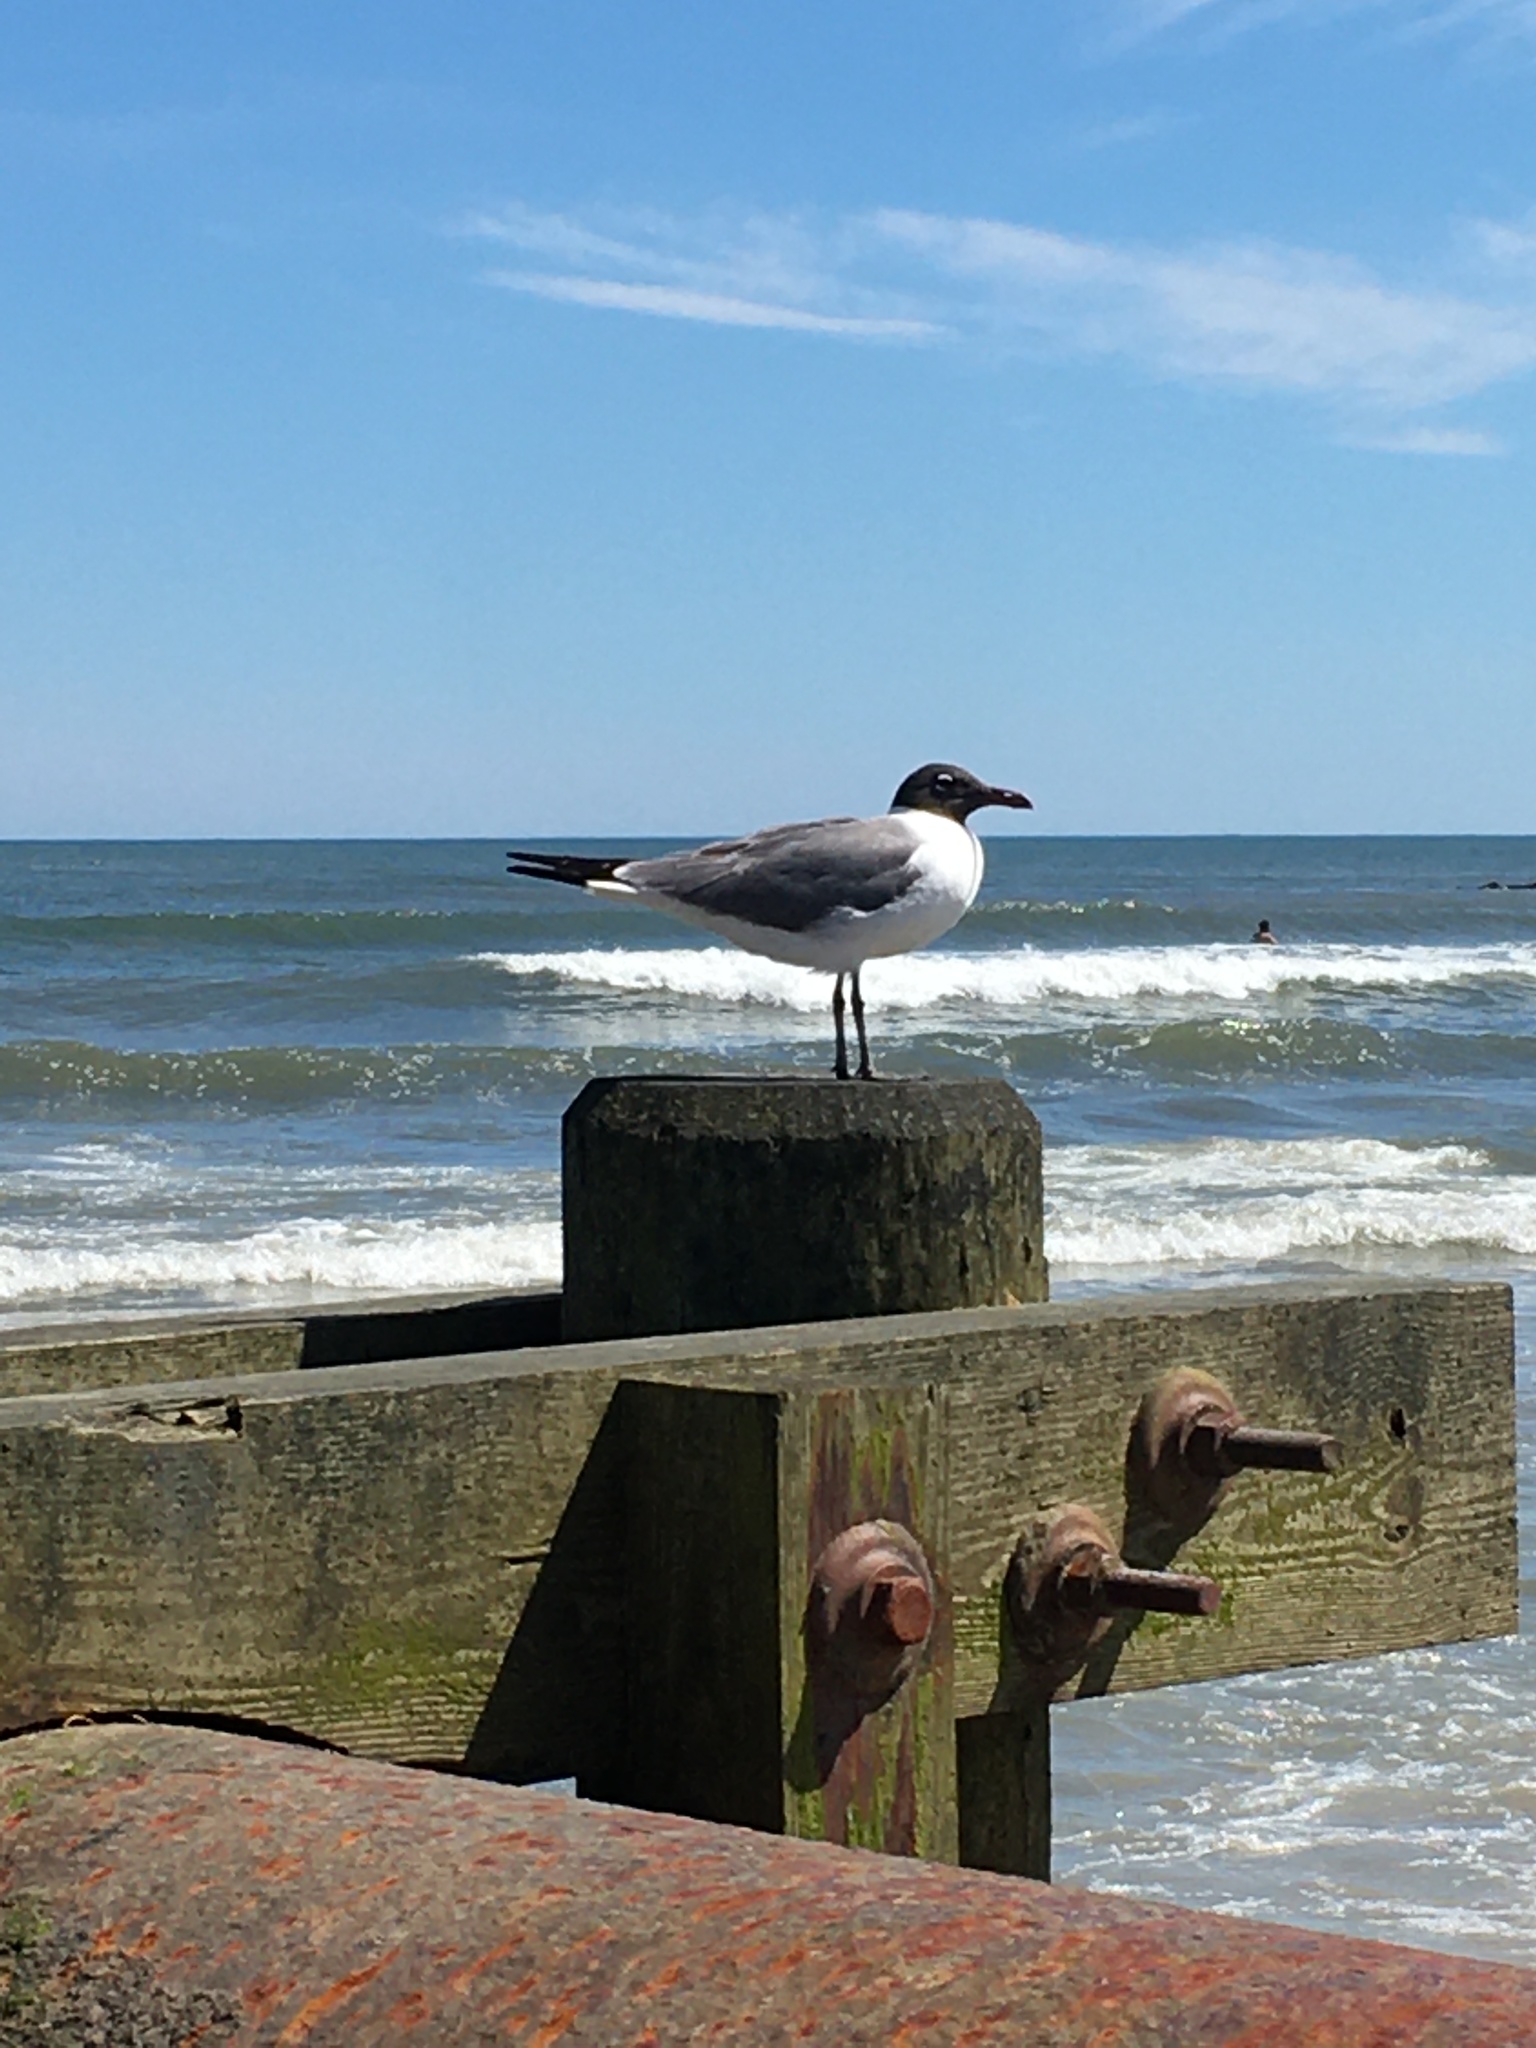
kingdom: Animalia
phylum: Chordata
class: Aves
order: Charadriiformes
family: Laridae
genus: Leucophaeus
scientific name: Leucophaeus atricilla
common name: Laughing gull
